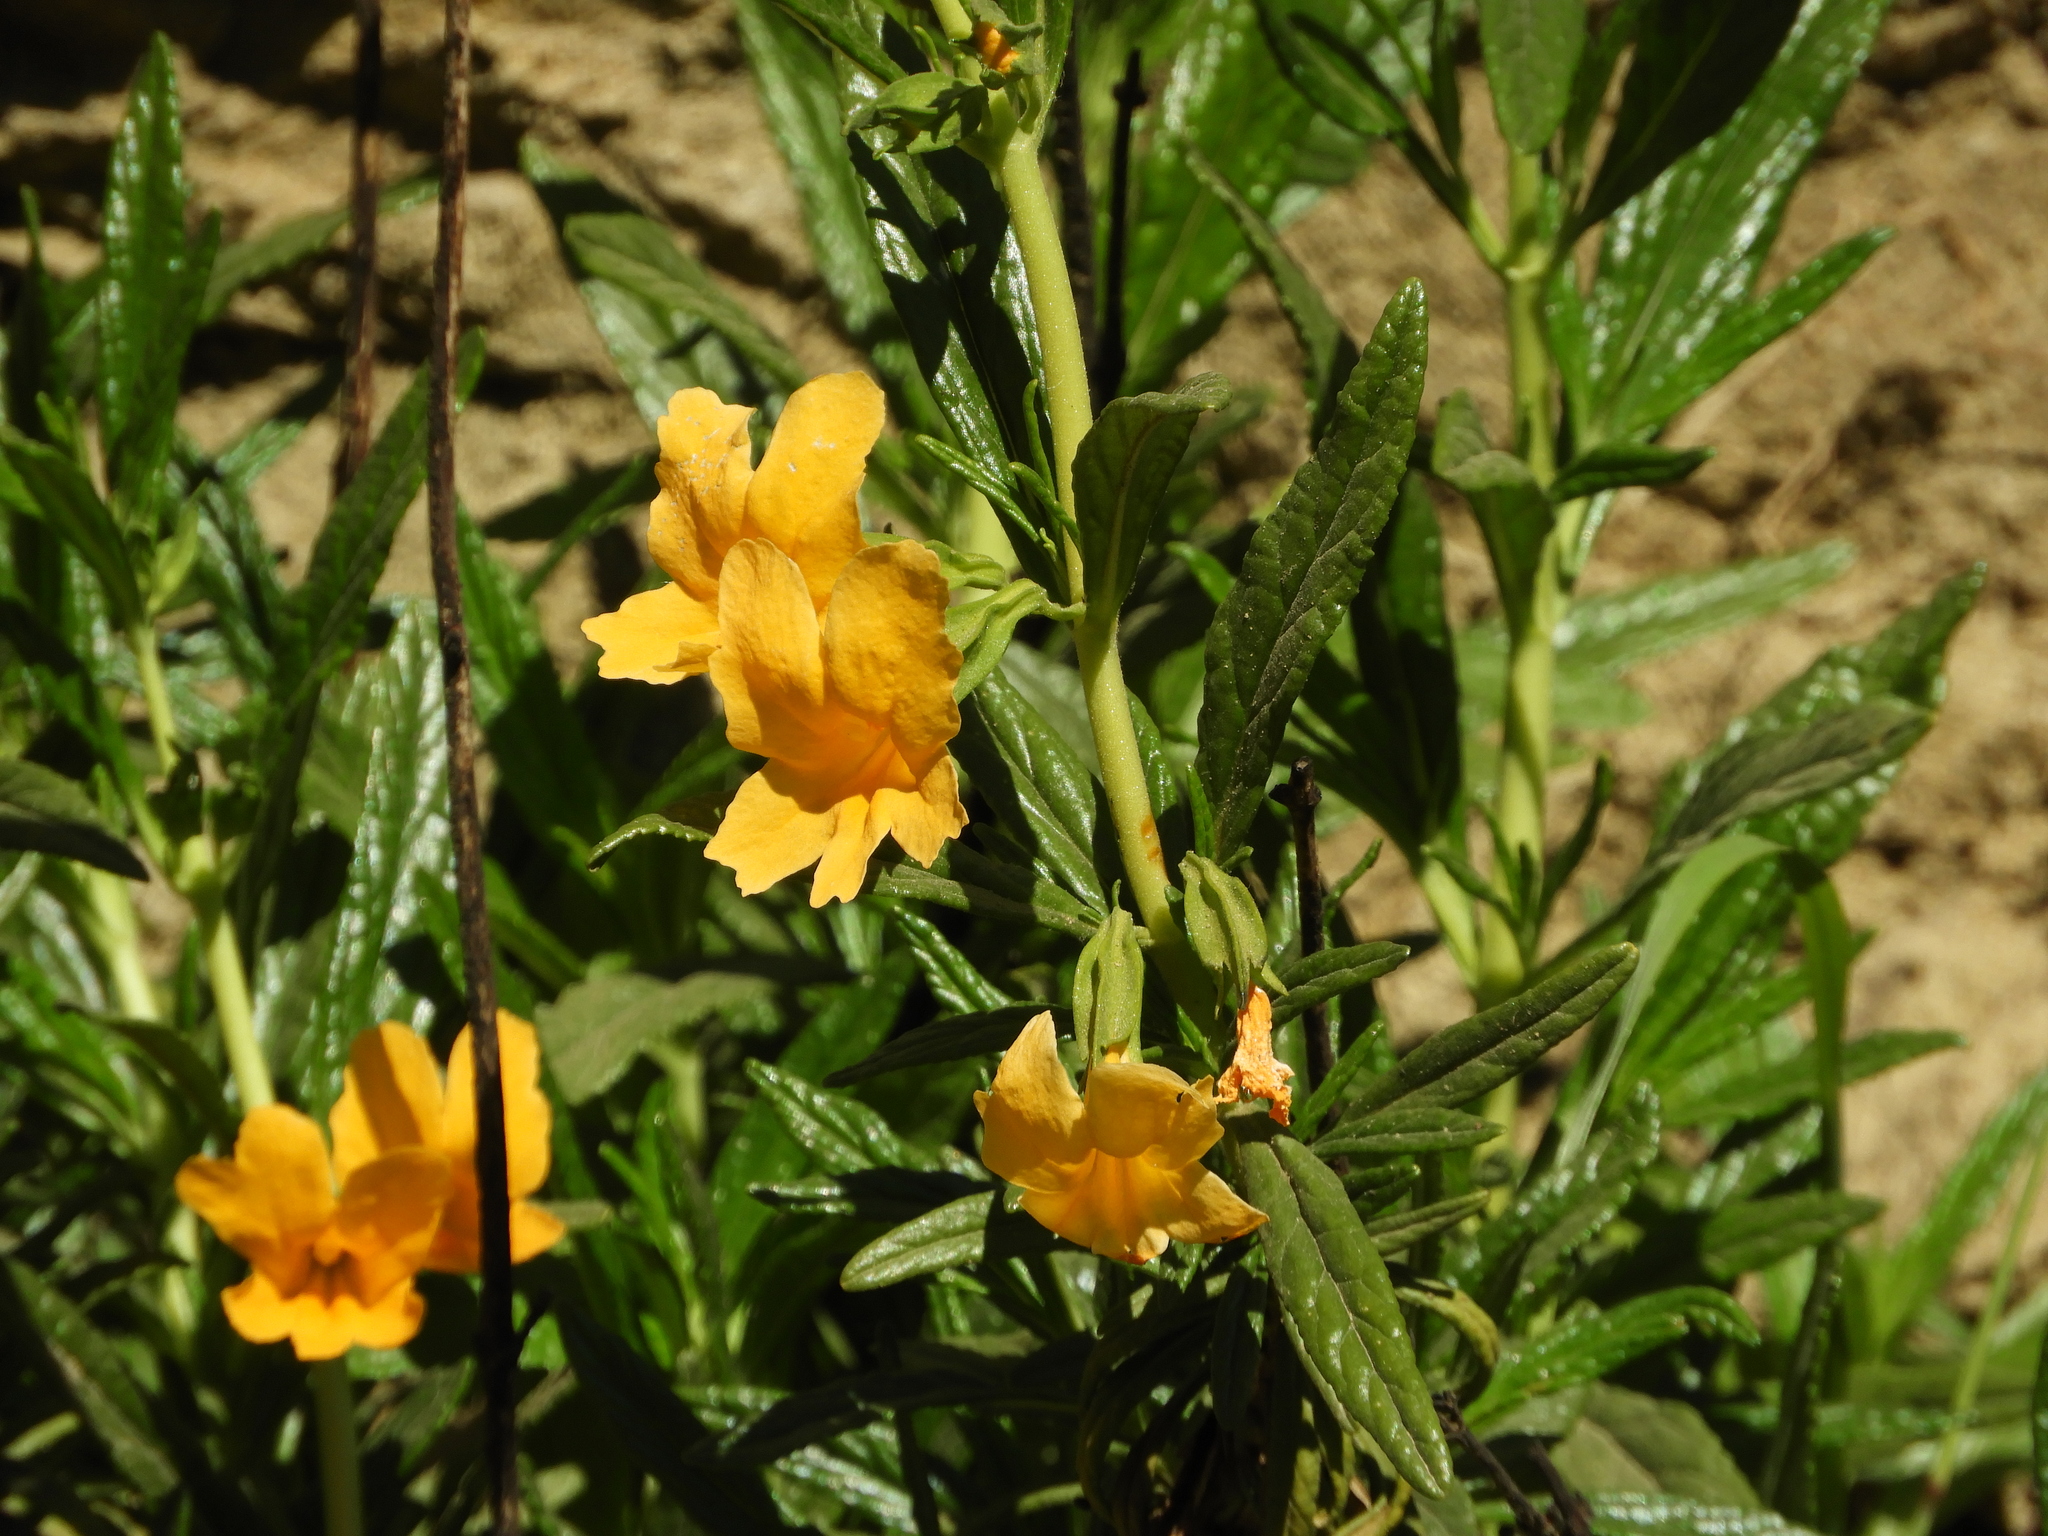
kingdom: Plantae
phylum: Tracheophyta
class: Magnoliopsida
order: Lamiales
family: Phrymaceae
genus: Diplacus
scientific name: Diplacus aurantiacus
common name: Bush monkey-flower
